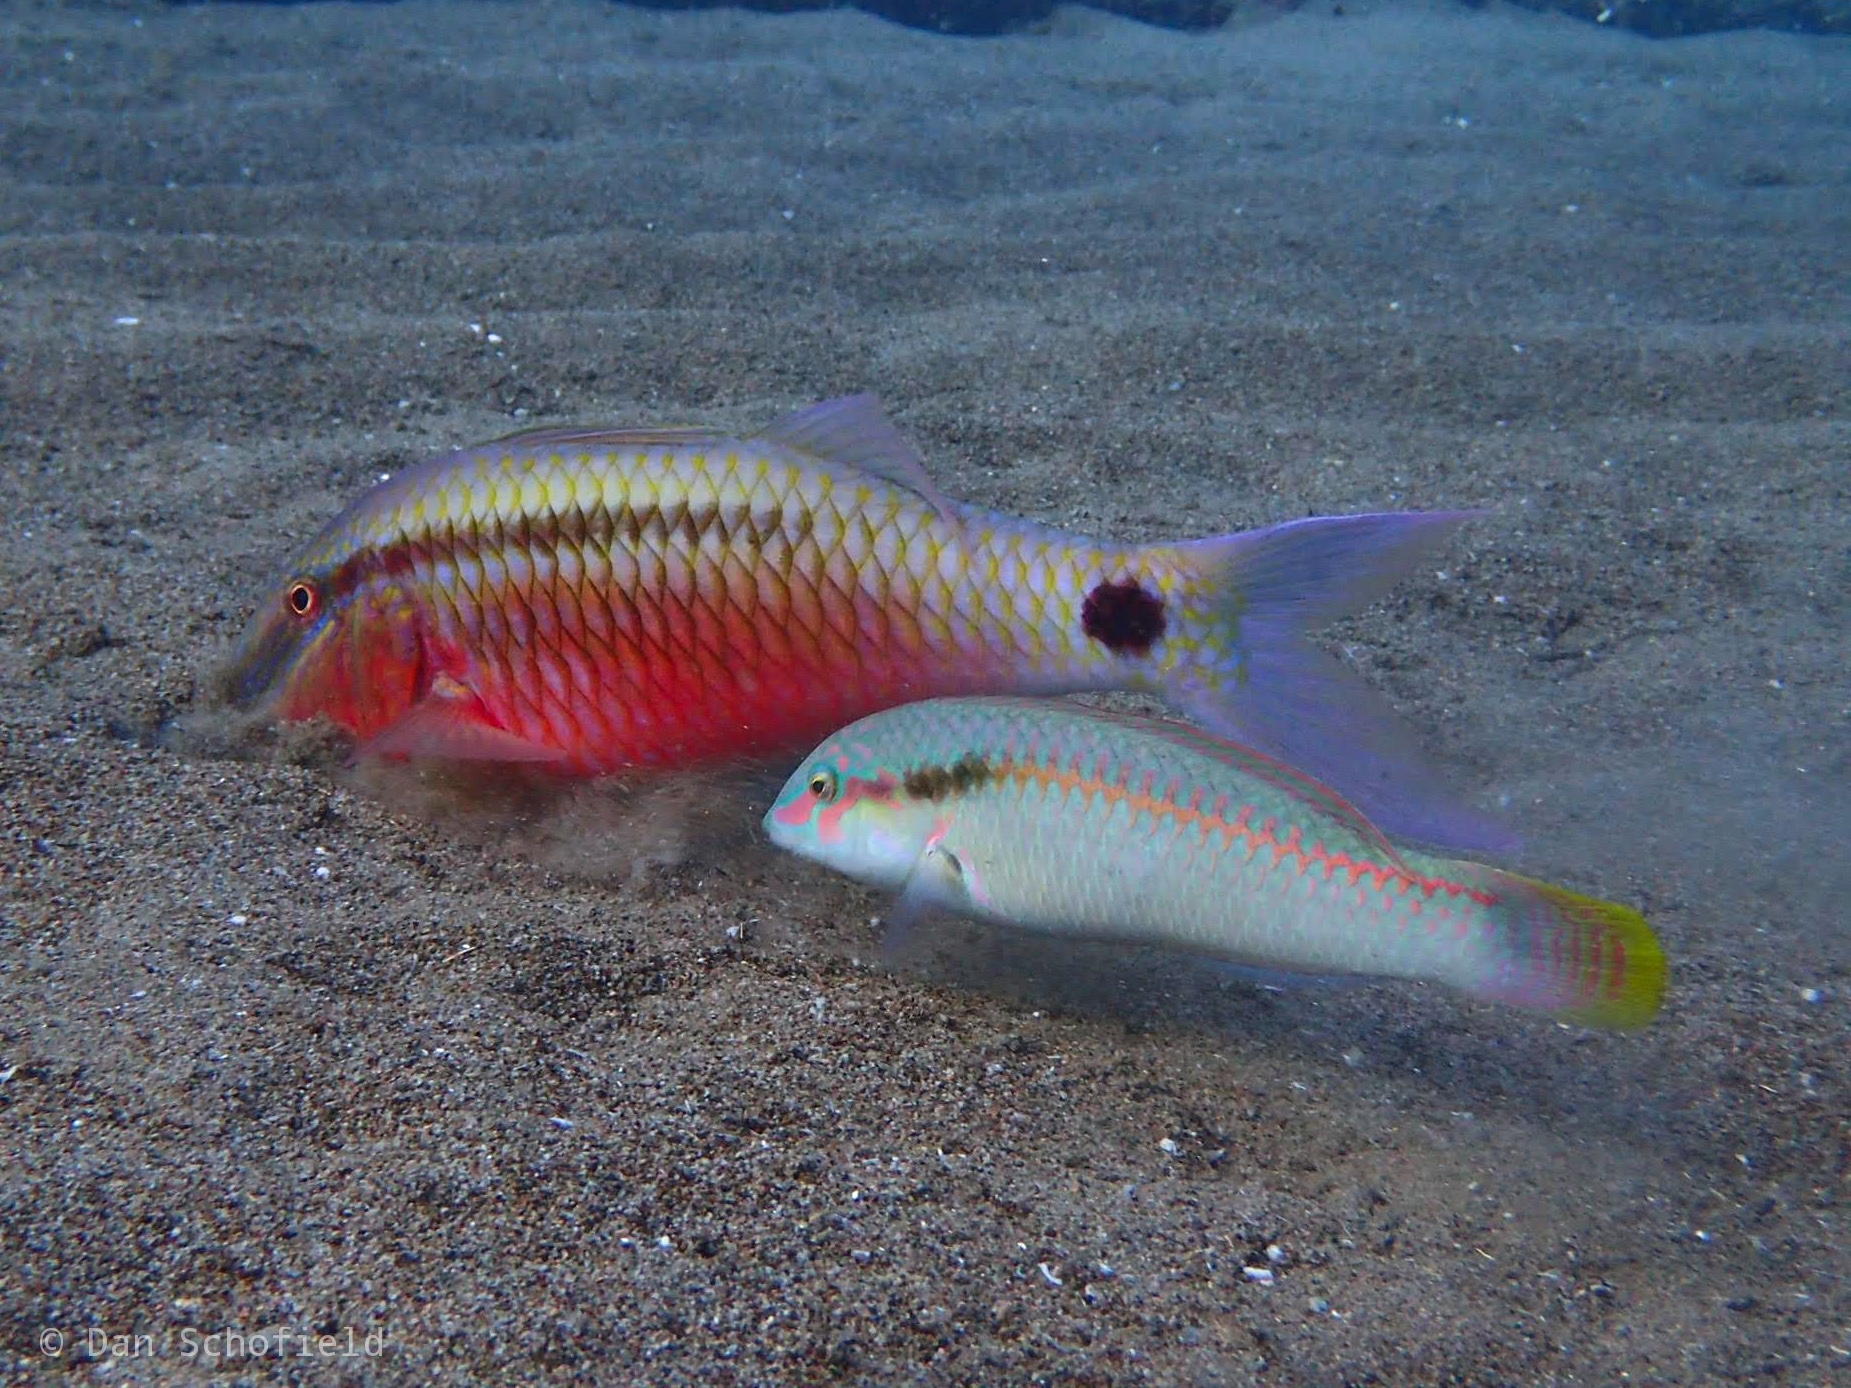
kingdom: Animalia
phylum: Chordata
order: Perciformes
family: Labridae
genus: Halichoeres
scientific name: Halichoeres scapularis
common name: Brownbanded wrasse
